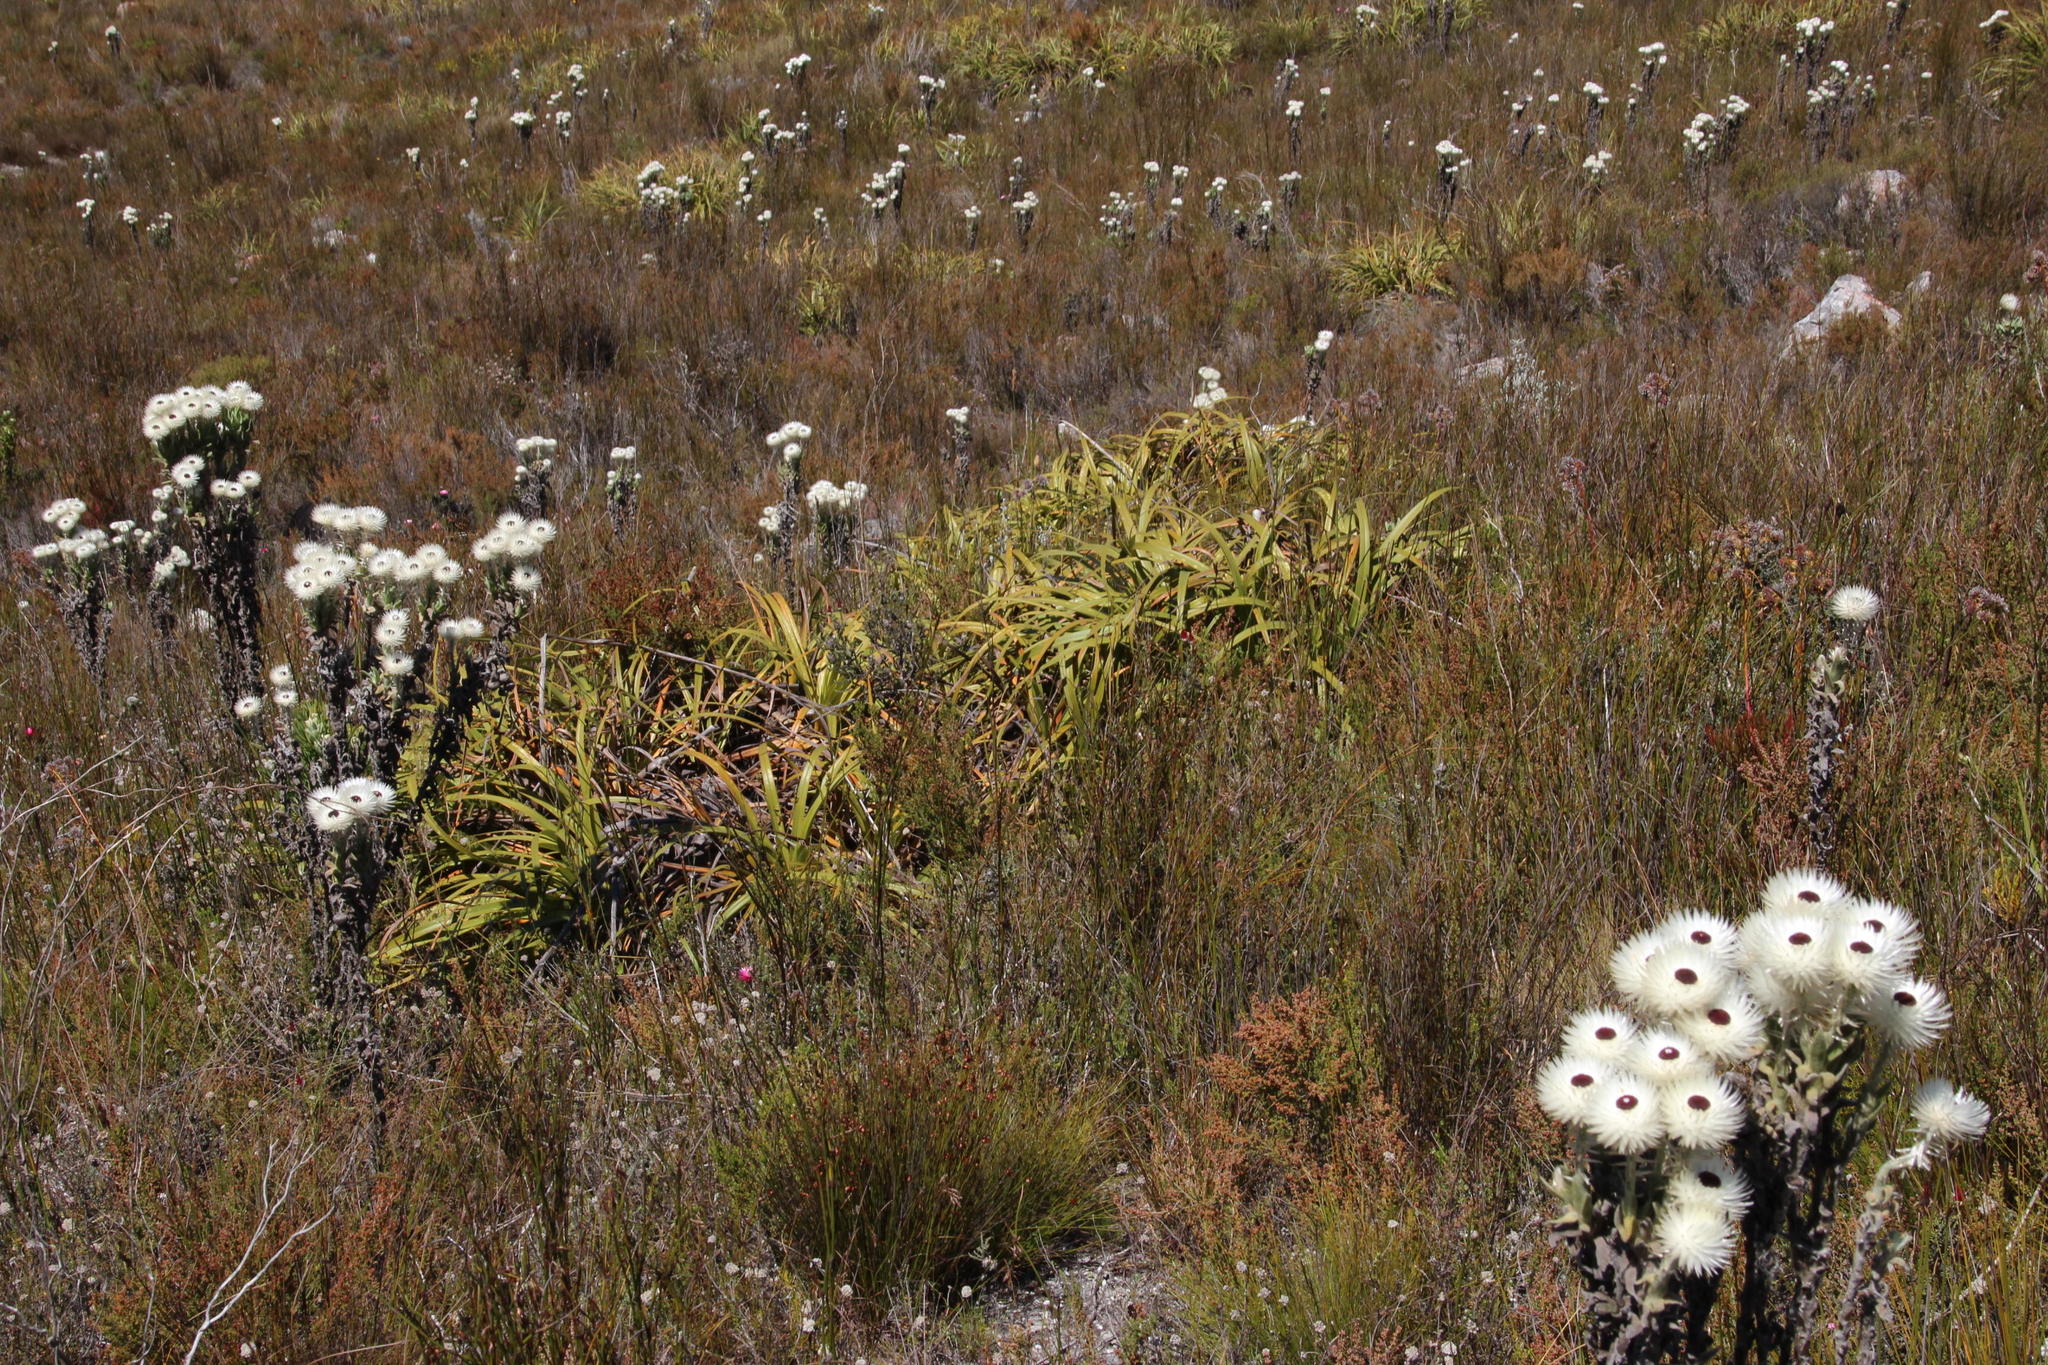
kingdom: Plantae
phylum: Tracheophyta
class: Liliopsida
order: Poales
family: Cyperaceae
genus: Tetraria
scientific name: Tetraria thermalis
